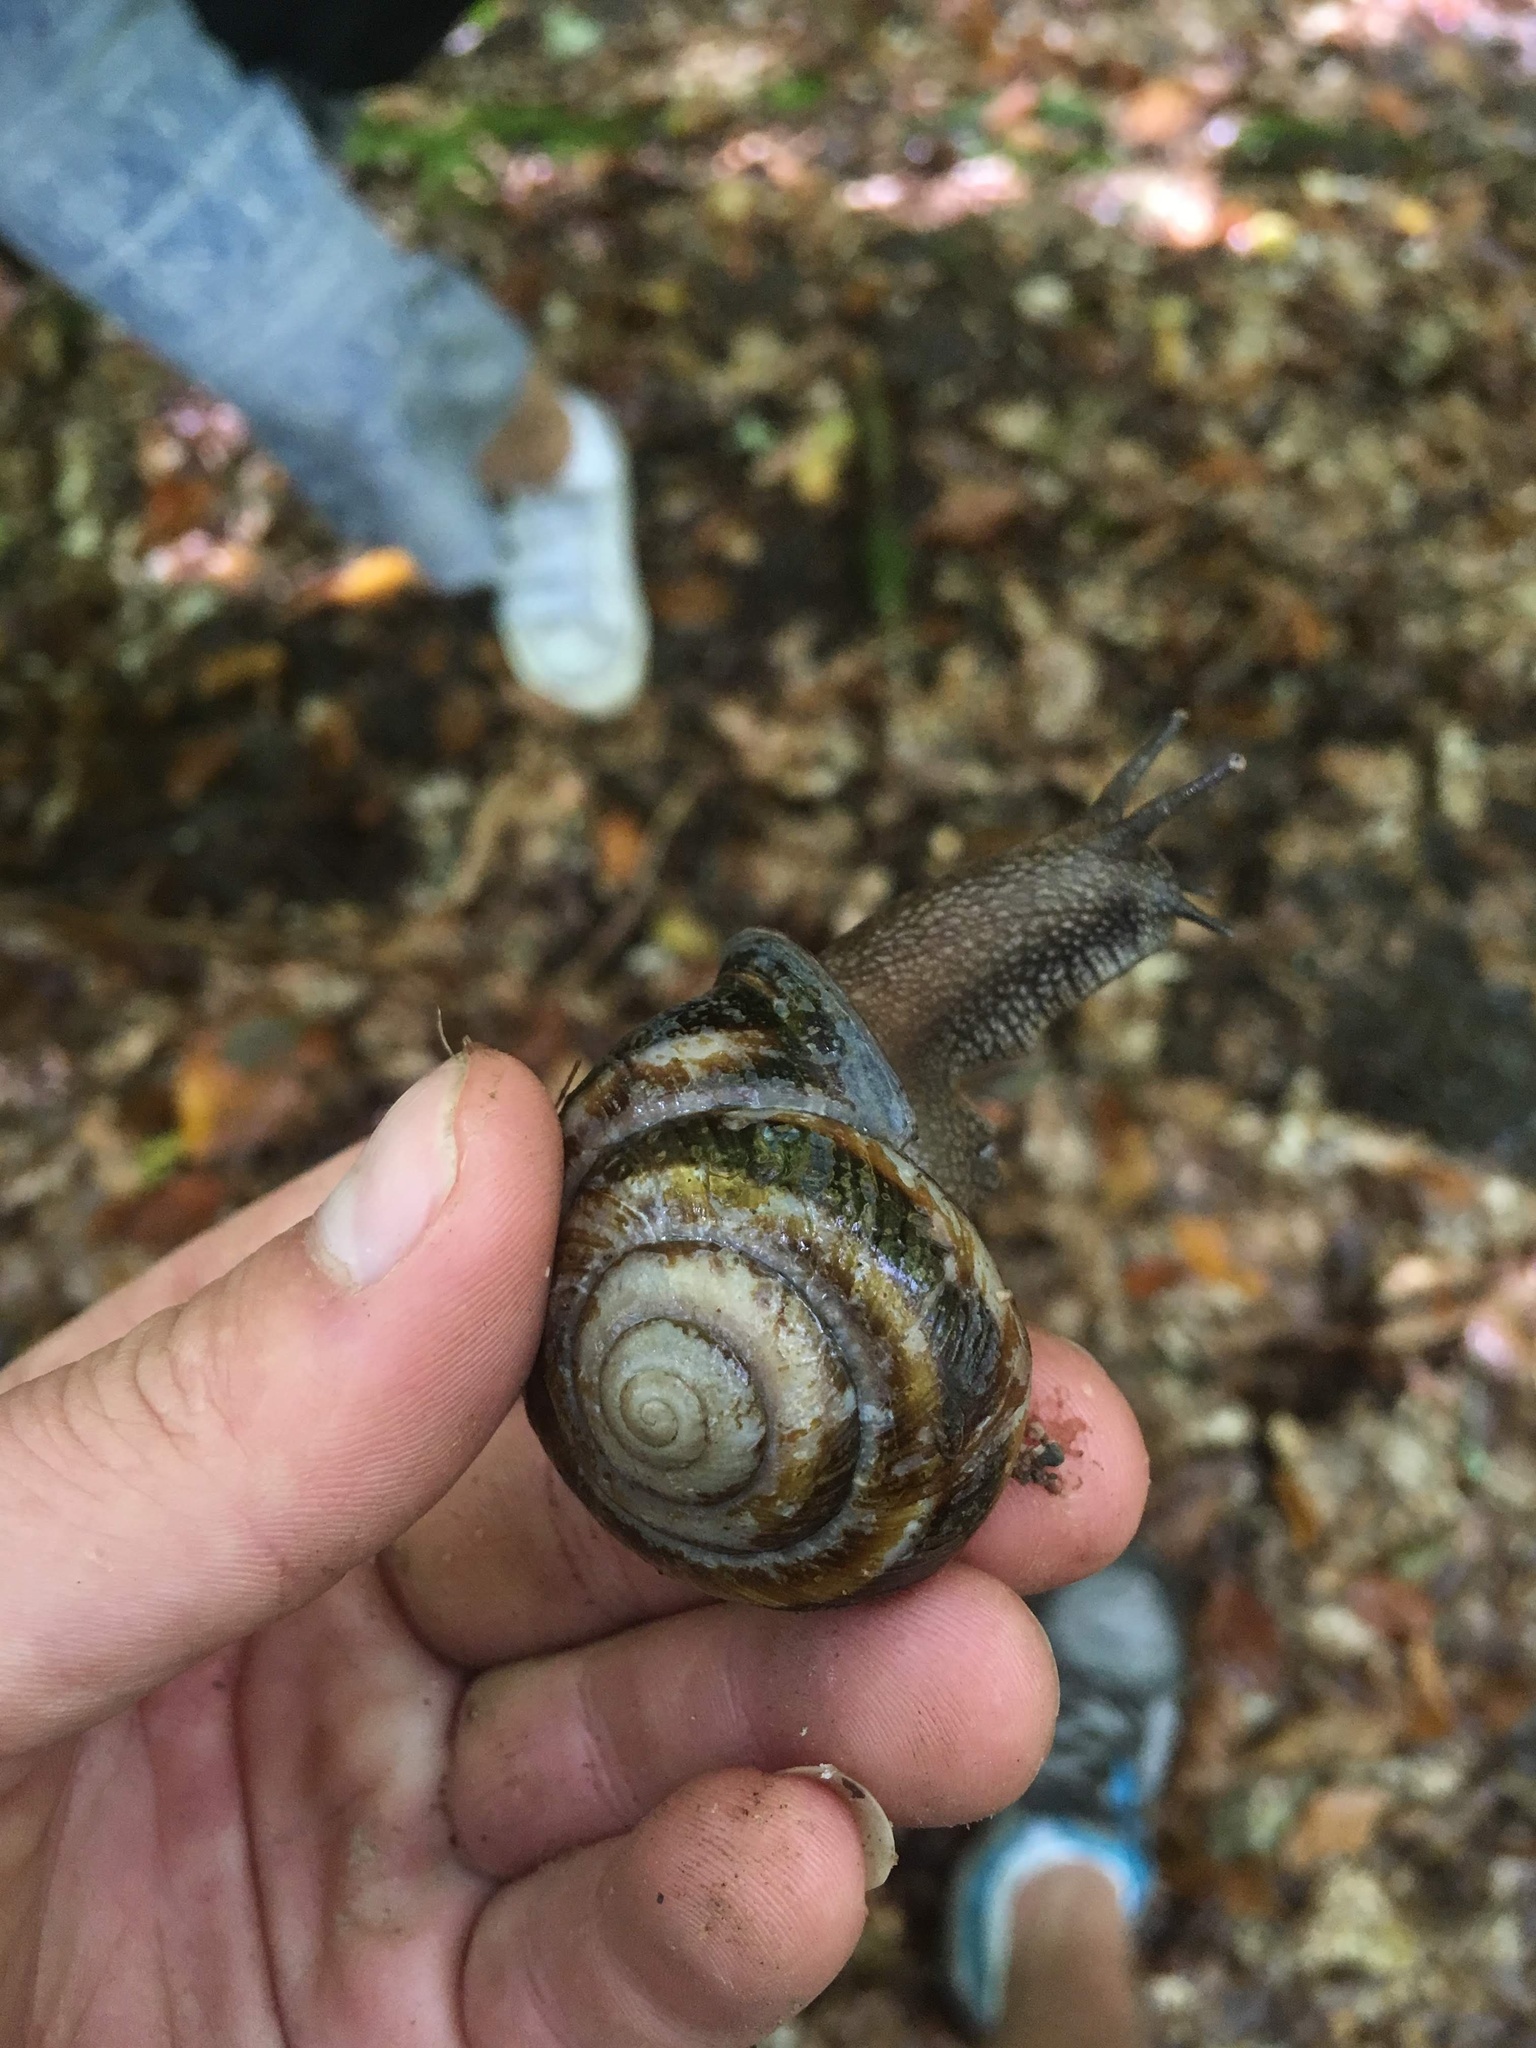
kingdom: Animalia
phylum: Mollusca
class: Gastropoda
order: Stylommatophora
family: Helicidae
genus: Caucasotachea
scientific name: Caucasotachea atrolabiata
